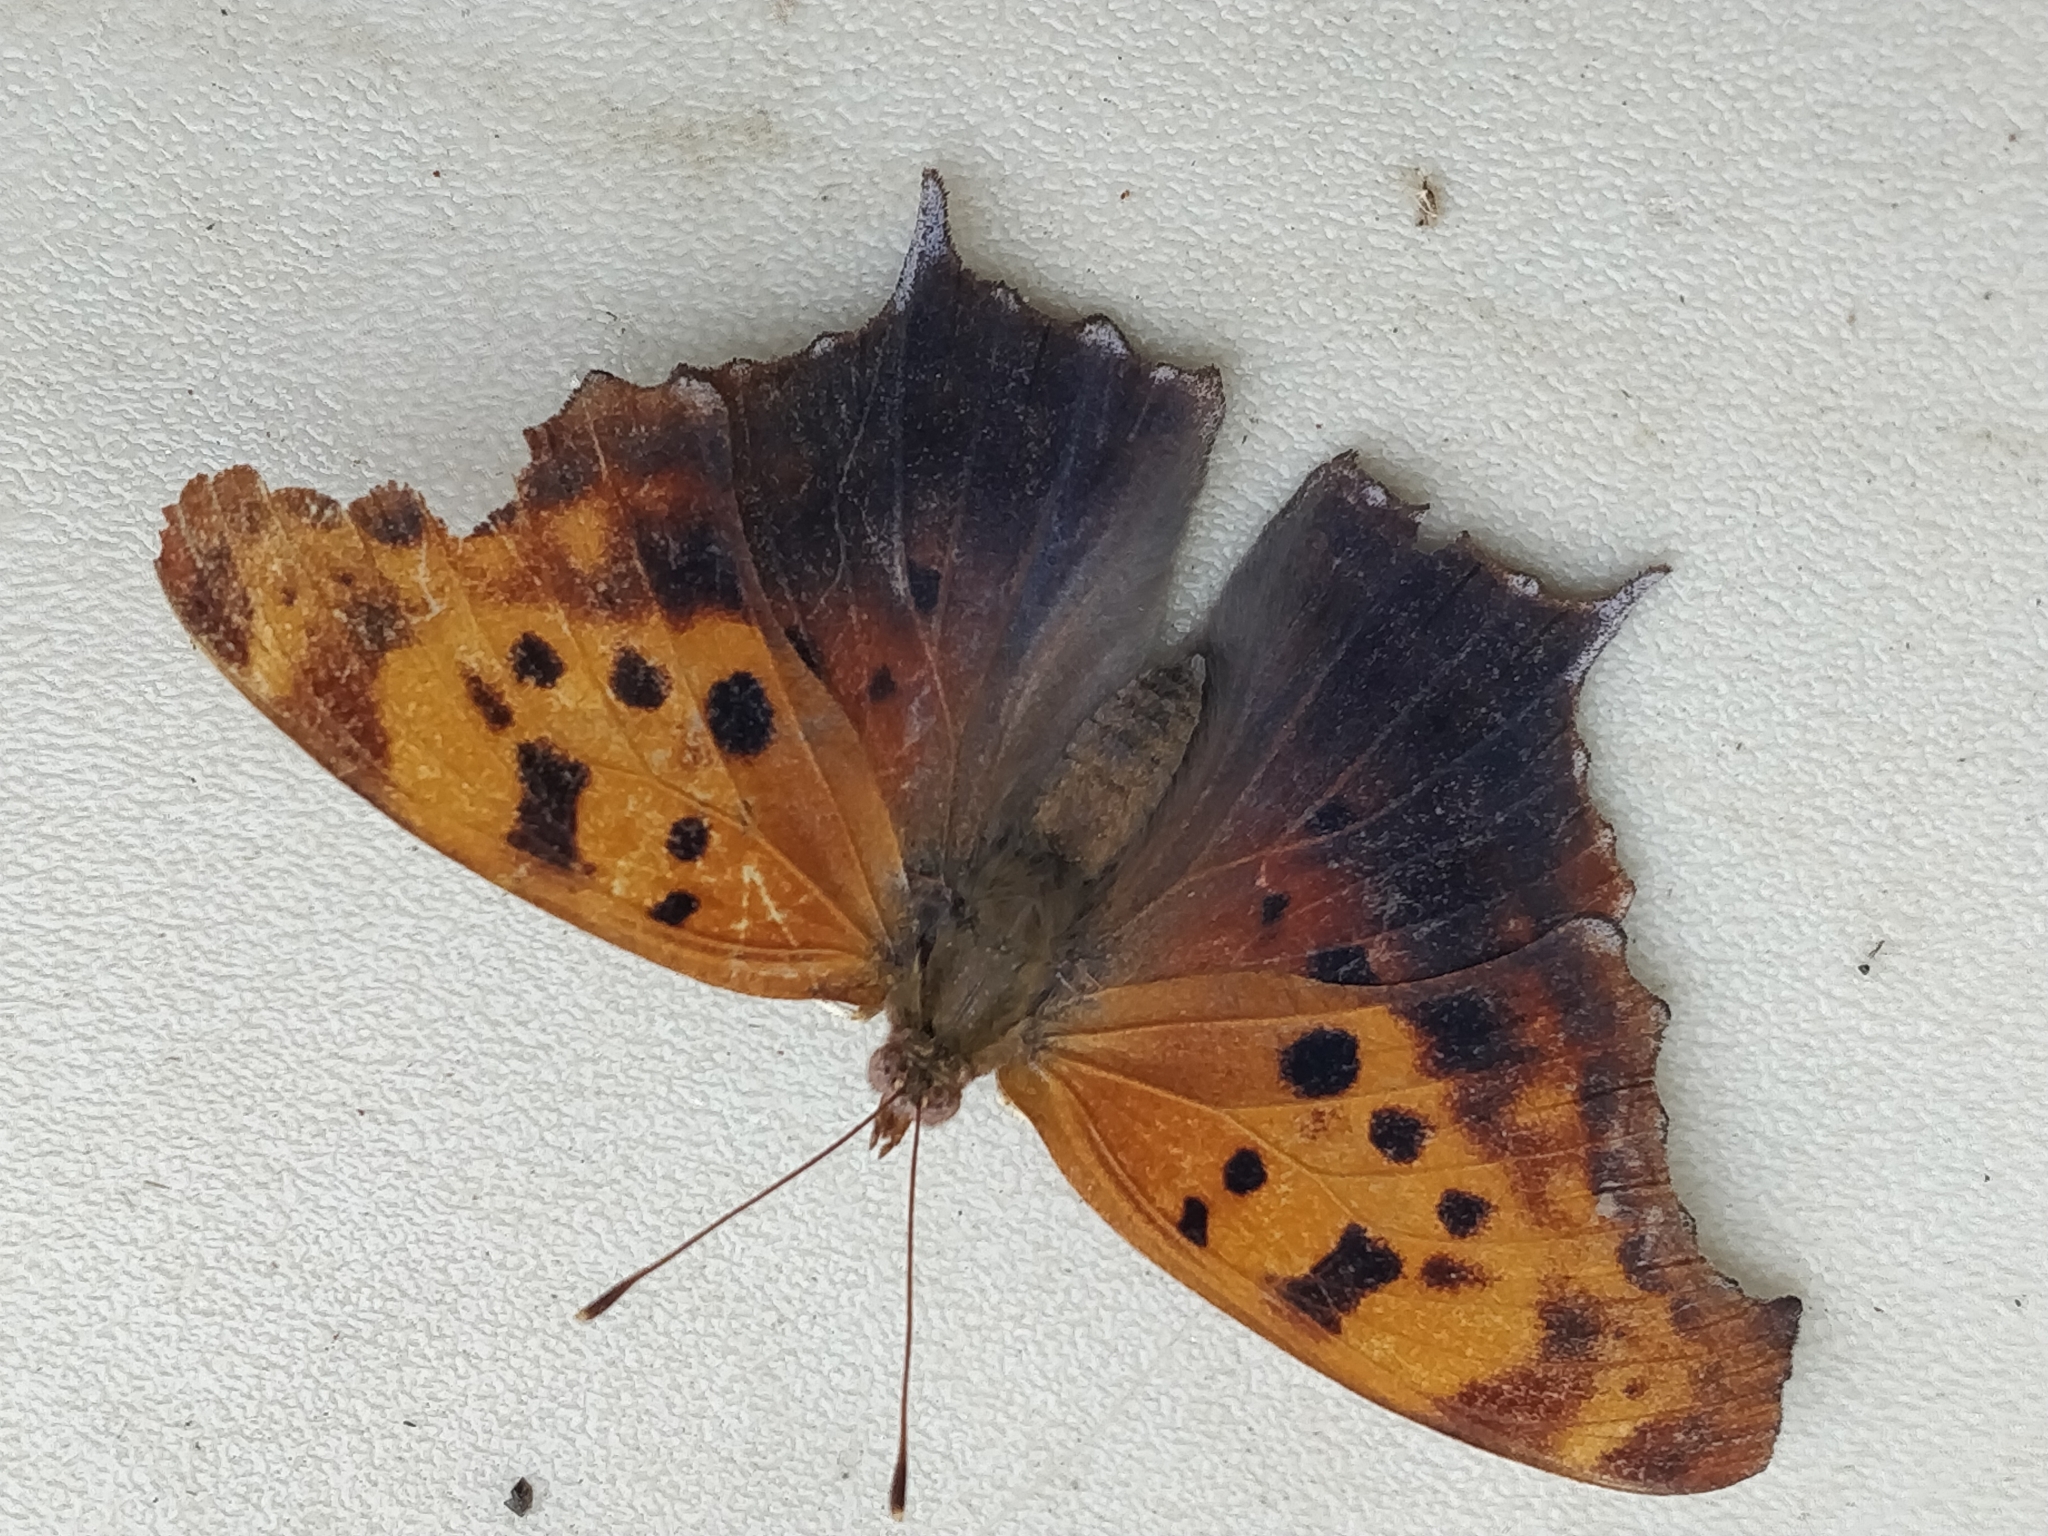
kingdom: Animalia
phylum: Arthropoda
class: Insecta
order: Lepidoptera
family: Nymphalidae
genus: Polygonia
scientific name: Polygonia interrogationis
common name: Question mark
